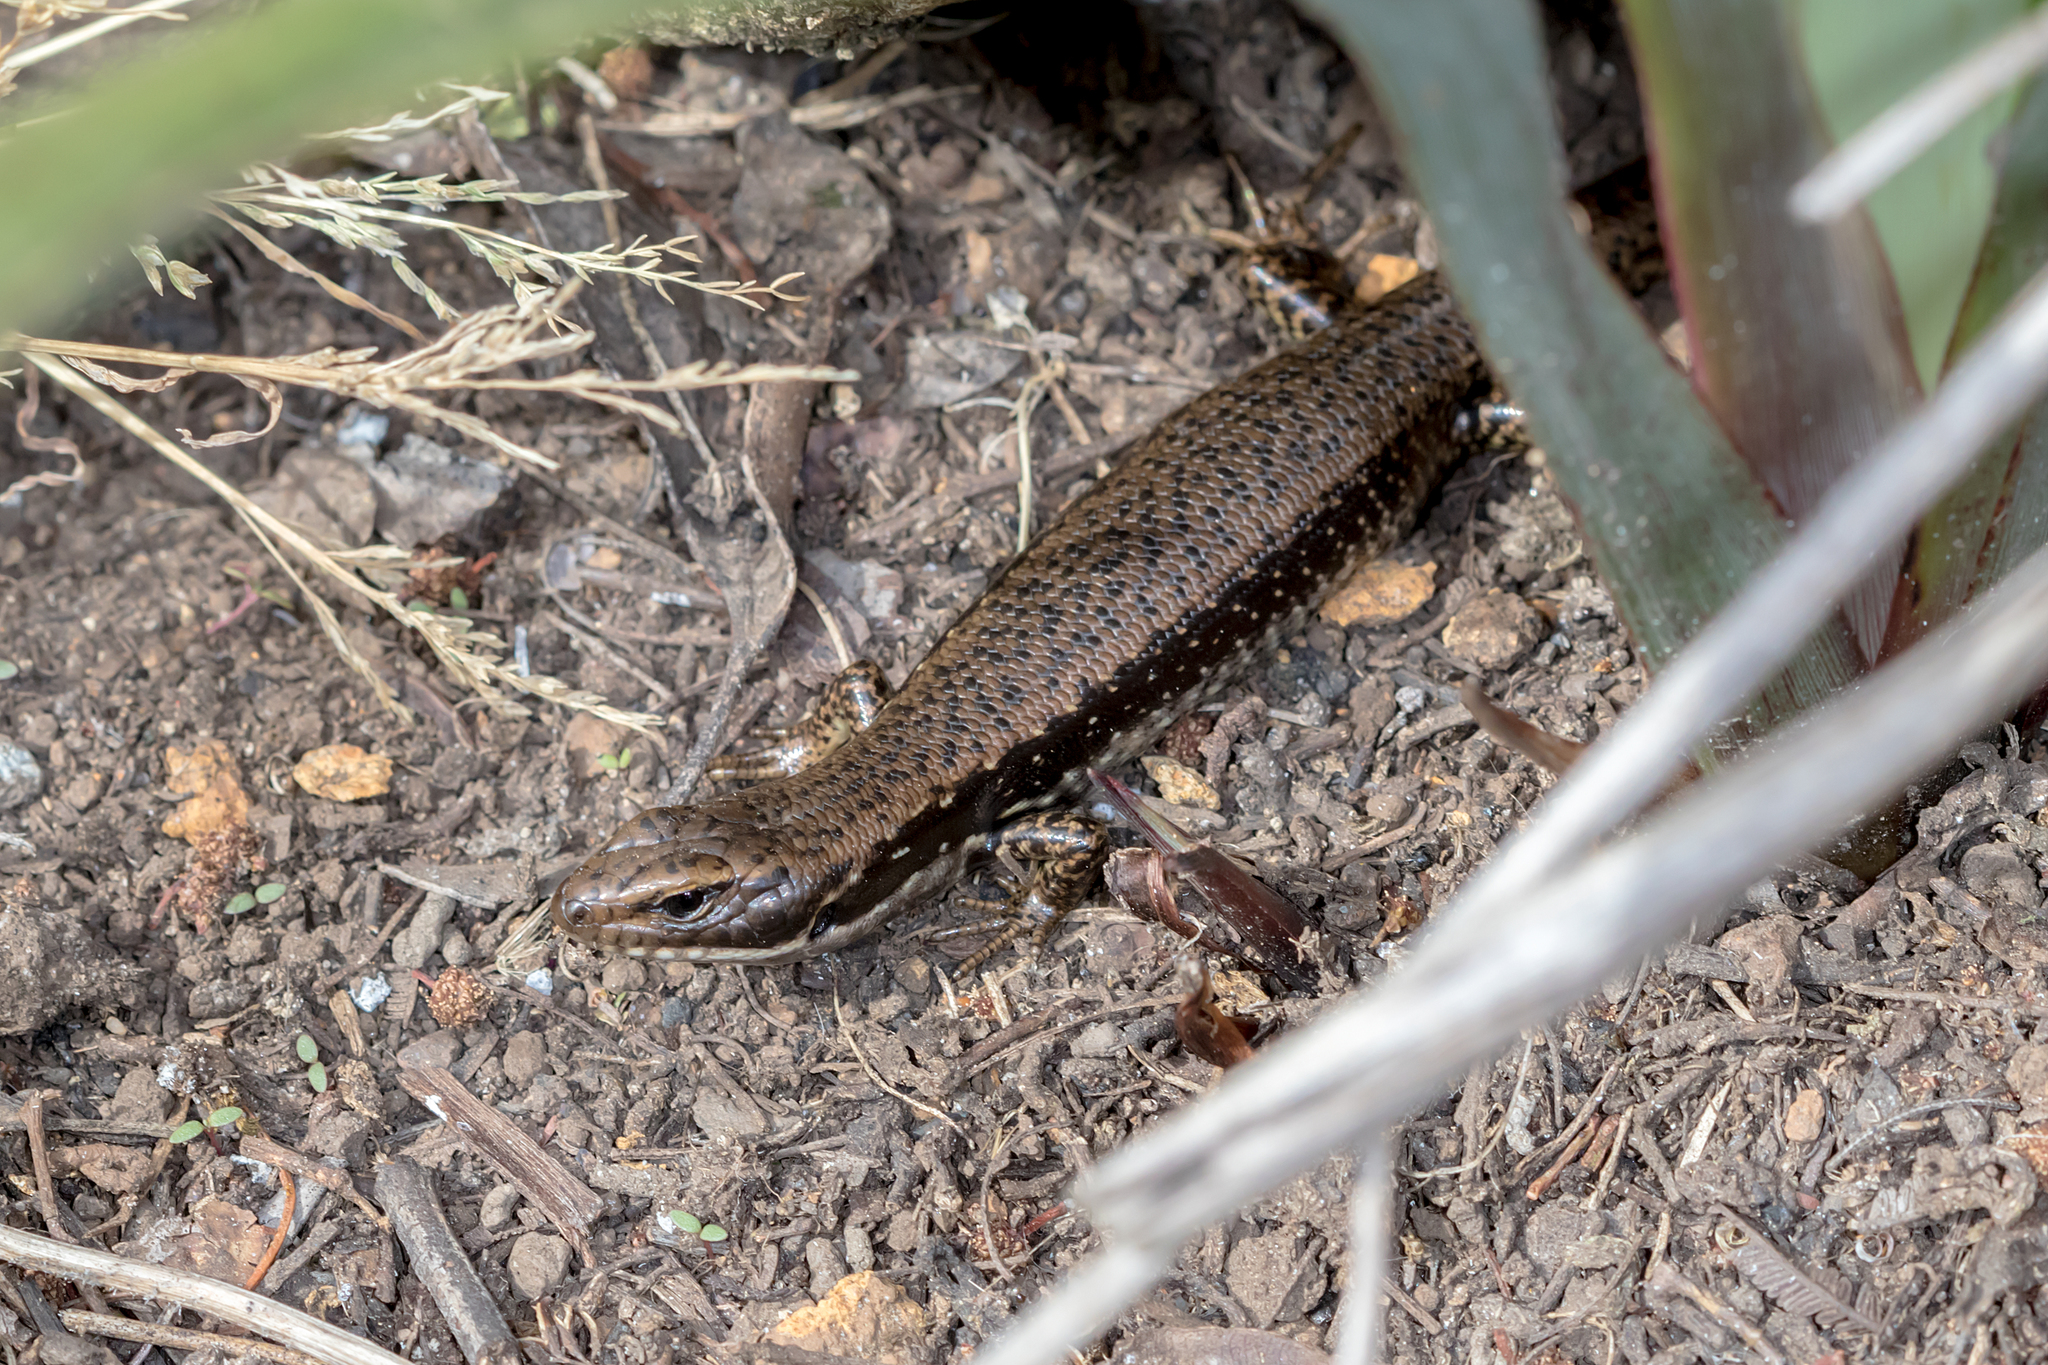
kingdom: Animalia
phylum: Chordata
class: Squamata
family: Scincidae
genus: Eulamprus
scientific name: Eulamprus tympanum
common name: Cool-temperate water-skink
